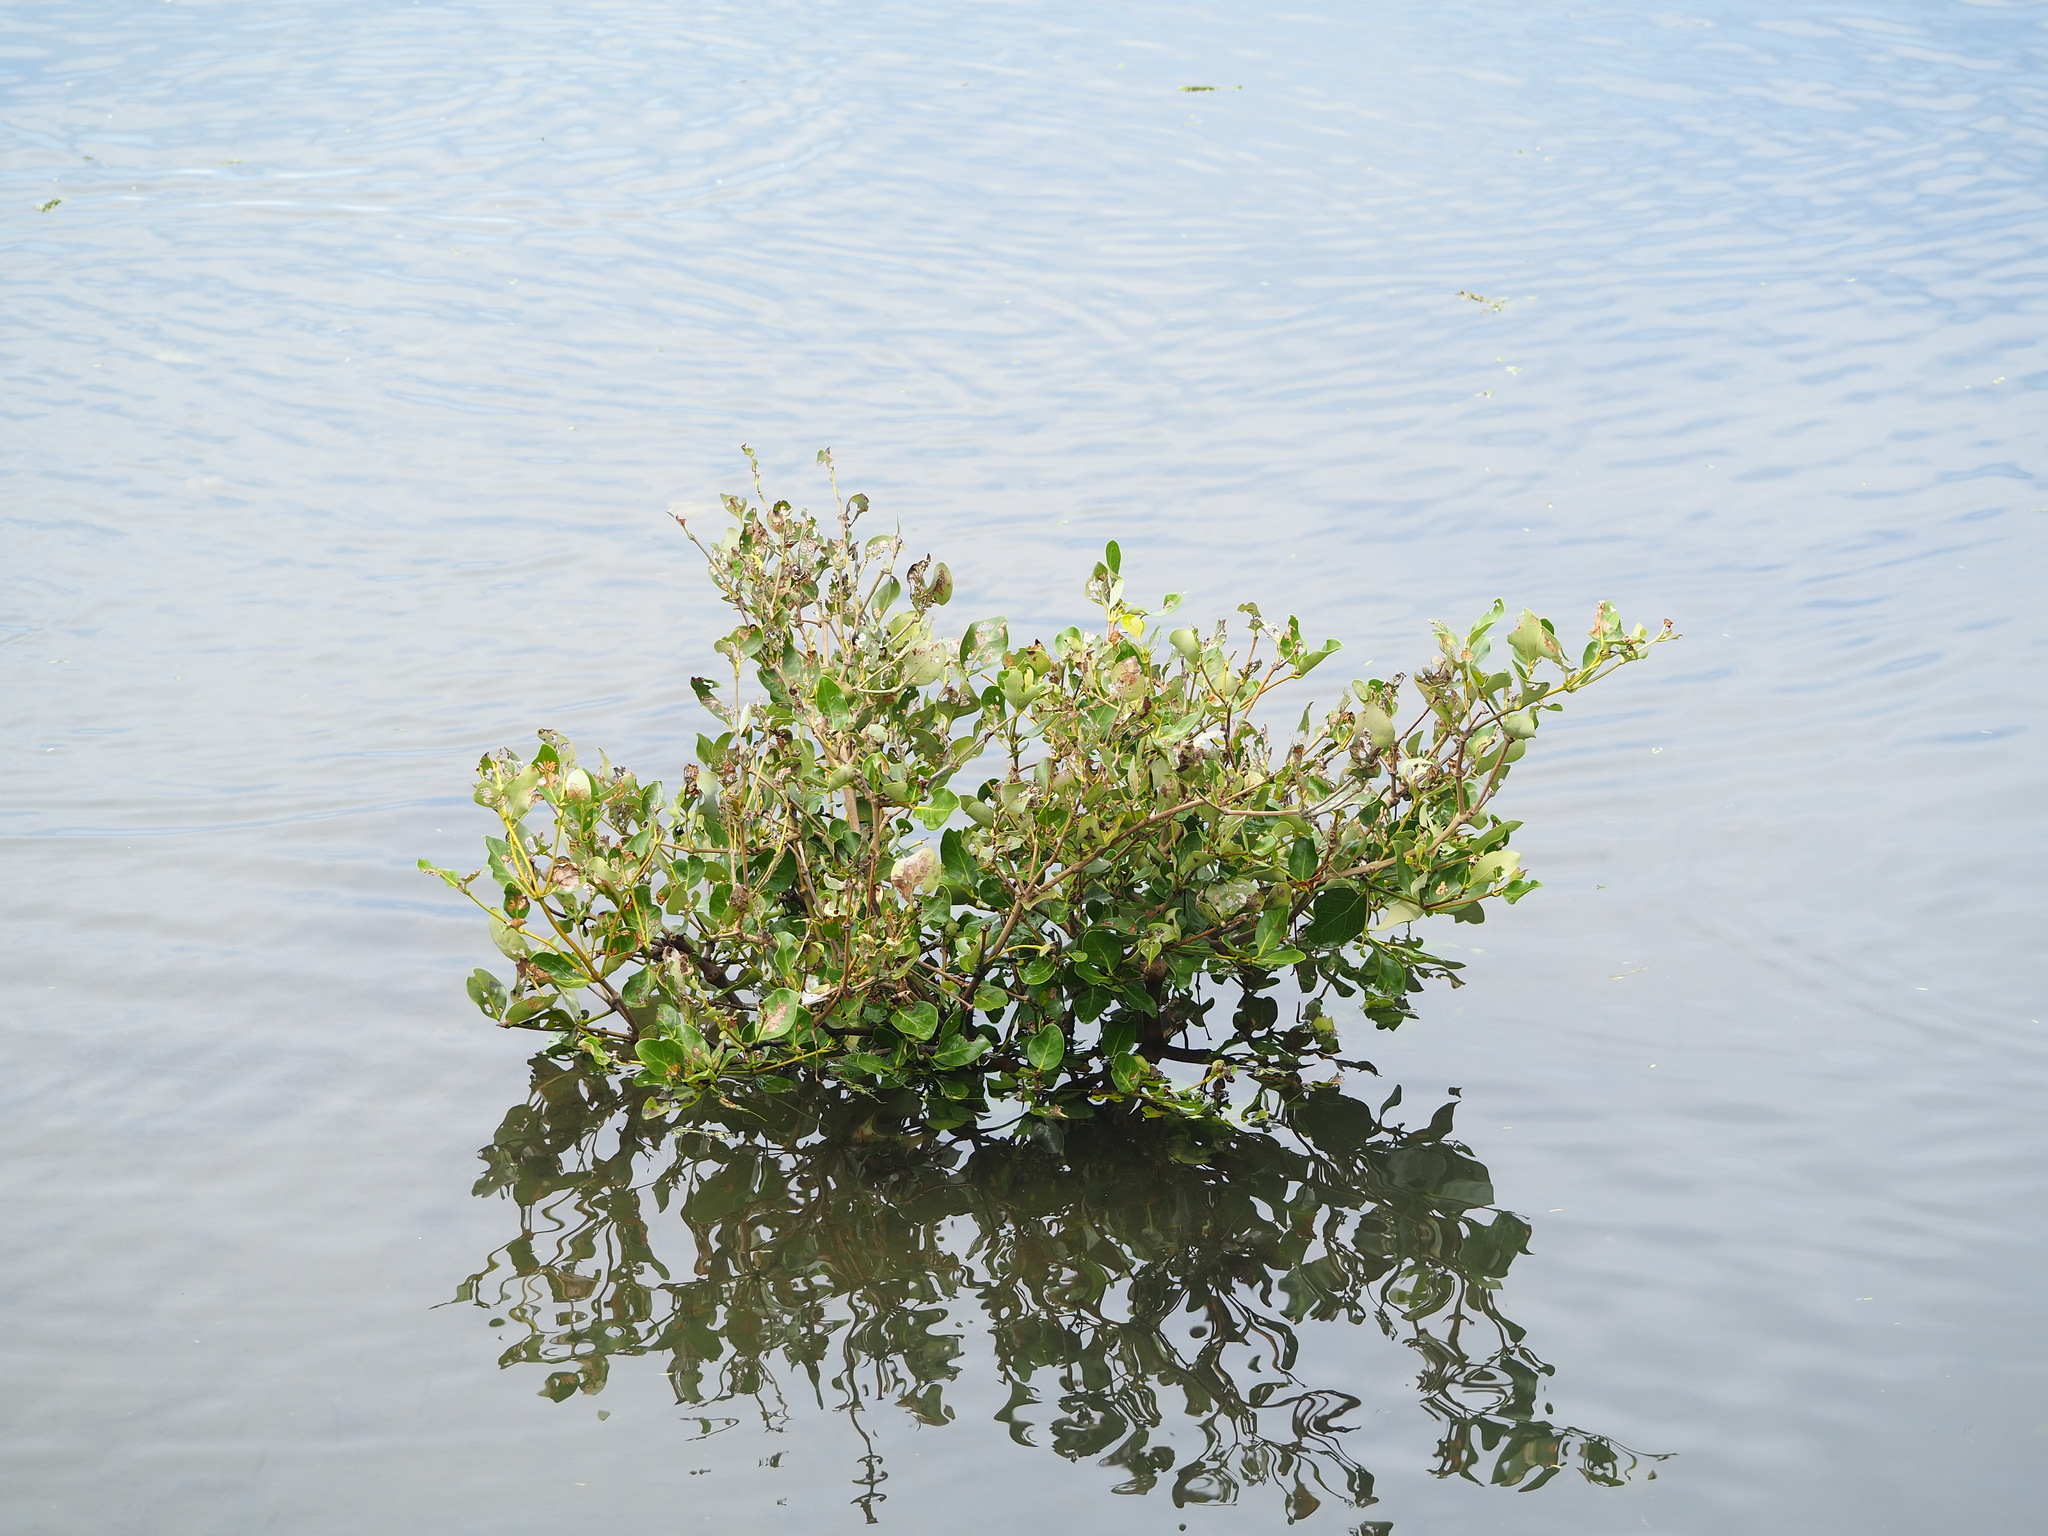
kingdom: Plantae
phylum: Tracheophyta
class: Magnoliopsida
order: Lamiales
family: Acanthaceae
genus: Avicennia
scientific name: Avicennia marina
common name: Gray mangrove
